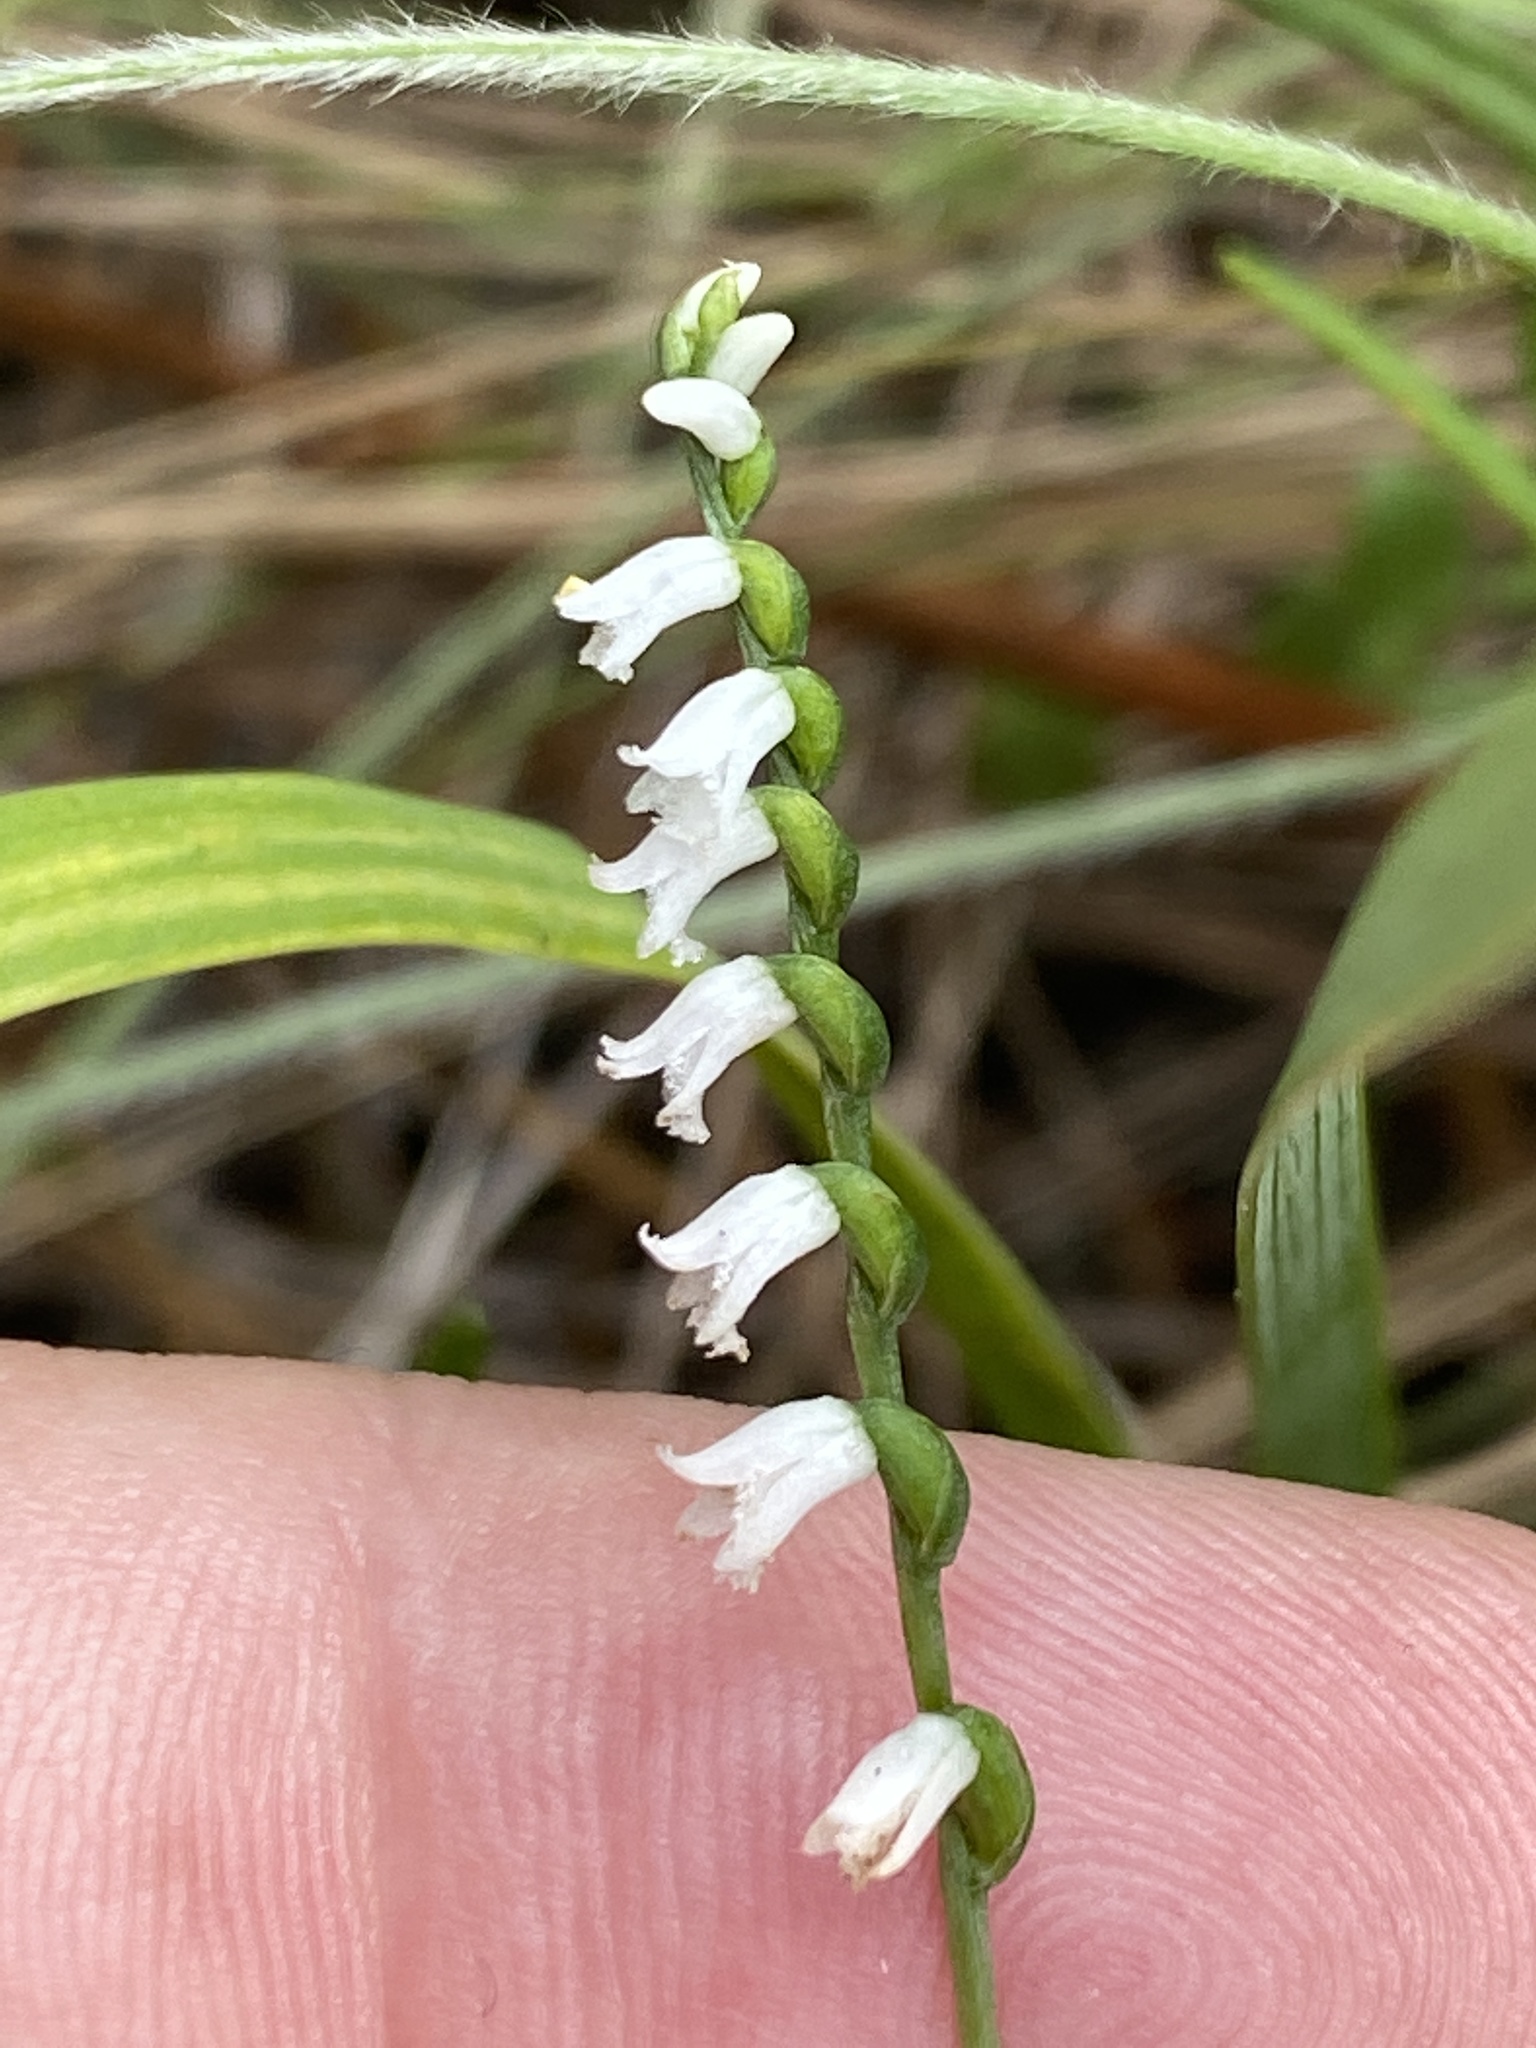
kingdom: Plantae
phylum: Tracheophyta
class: Liliopsida
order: Asparagales
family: Orchidaceae
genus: Spiranthes
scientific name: Spiranthes tuberosa
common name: Little ladies'-tresses
